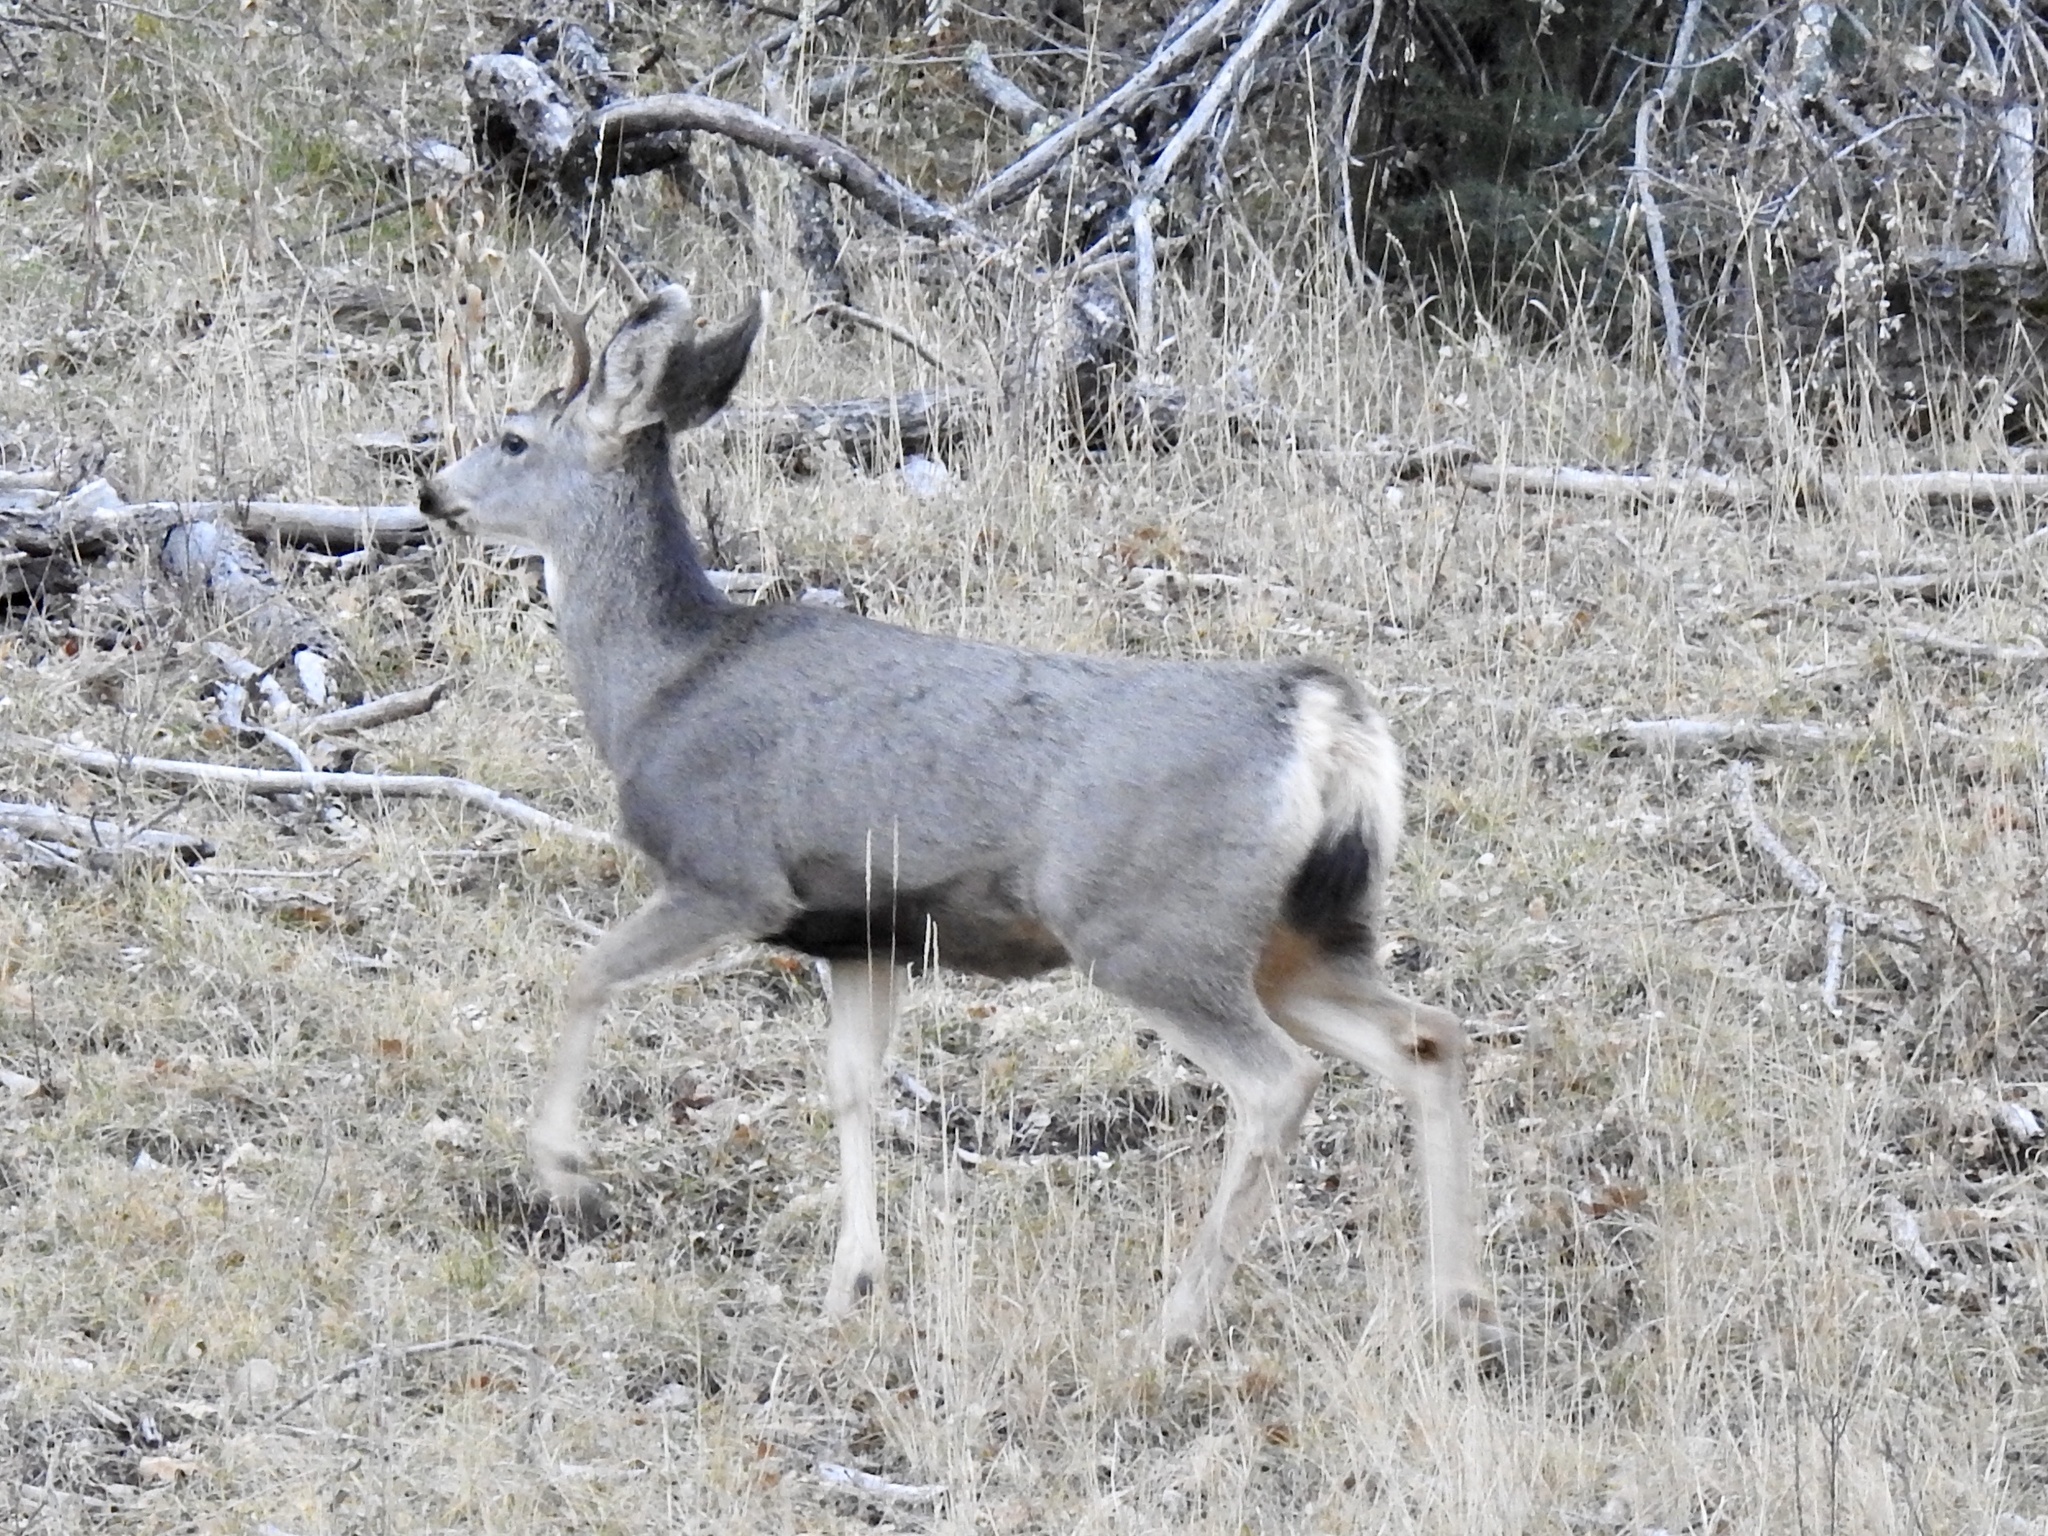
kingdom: Animalia
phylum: Chordata
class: Mammalia
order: Artiodactyla
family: Cervidae
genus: Odocoileus
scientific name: Odocoileus hemionus
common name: Mule deer
